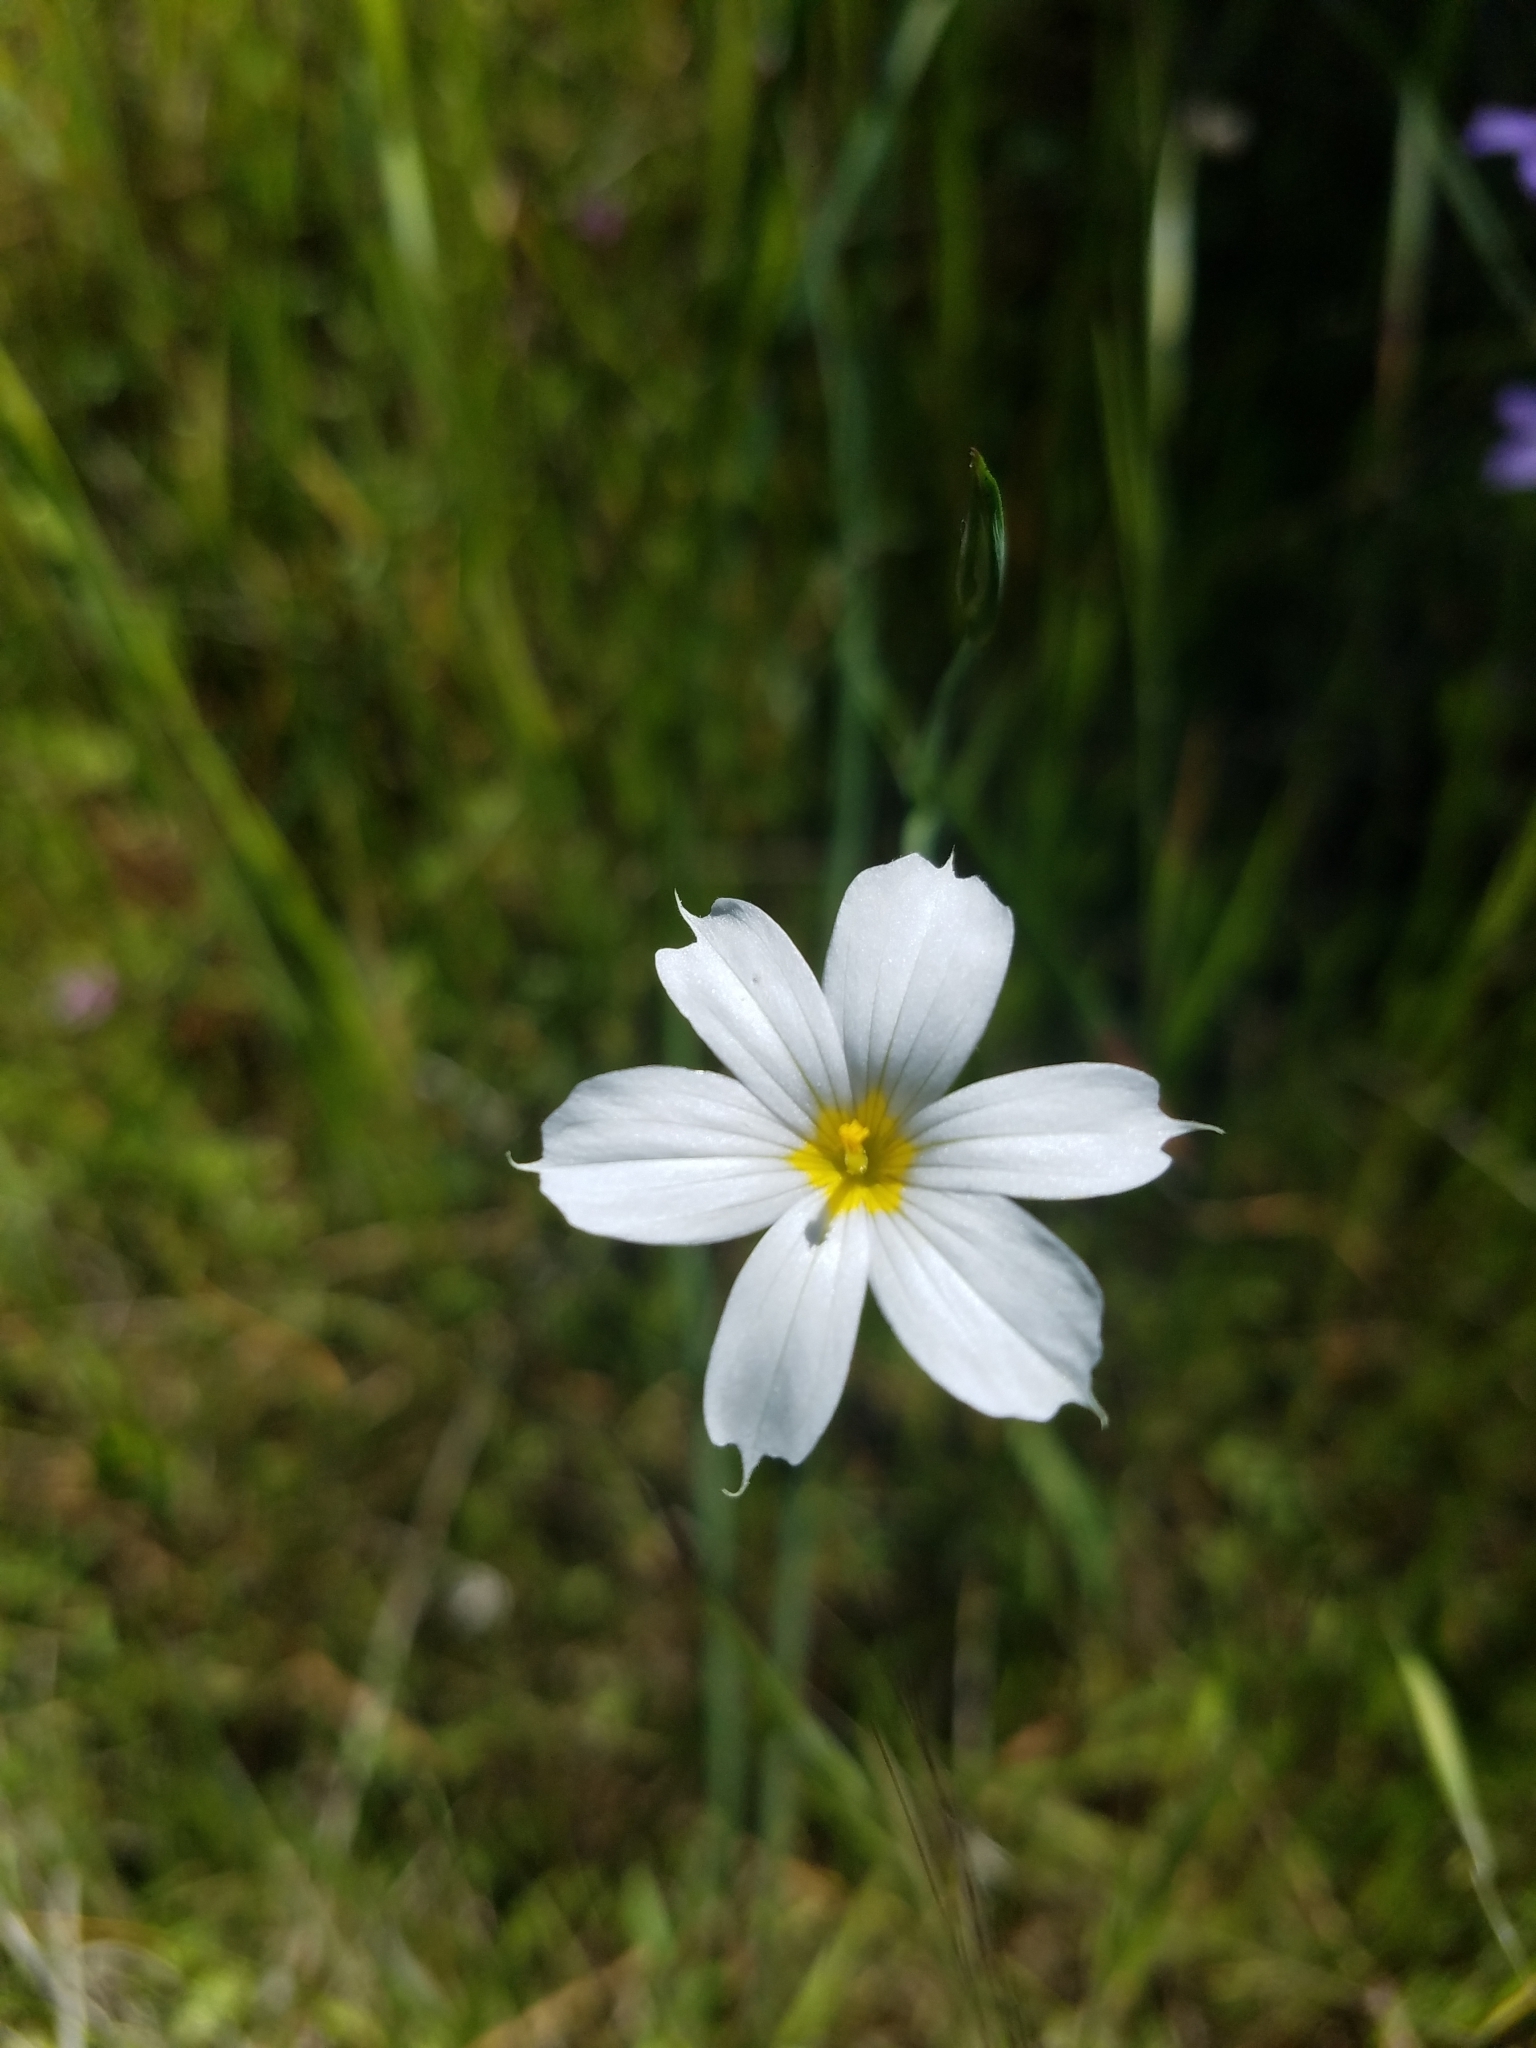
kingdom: Plantae
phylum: Tracheophyta
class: Magnoliopsida
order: Boraginales
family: Hydrophyllaceae
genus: Nemophila
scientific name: Nemophila heterophylla
